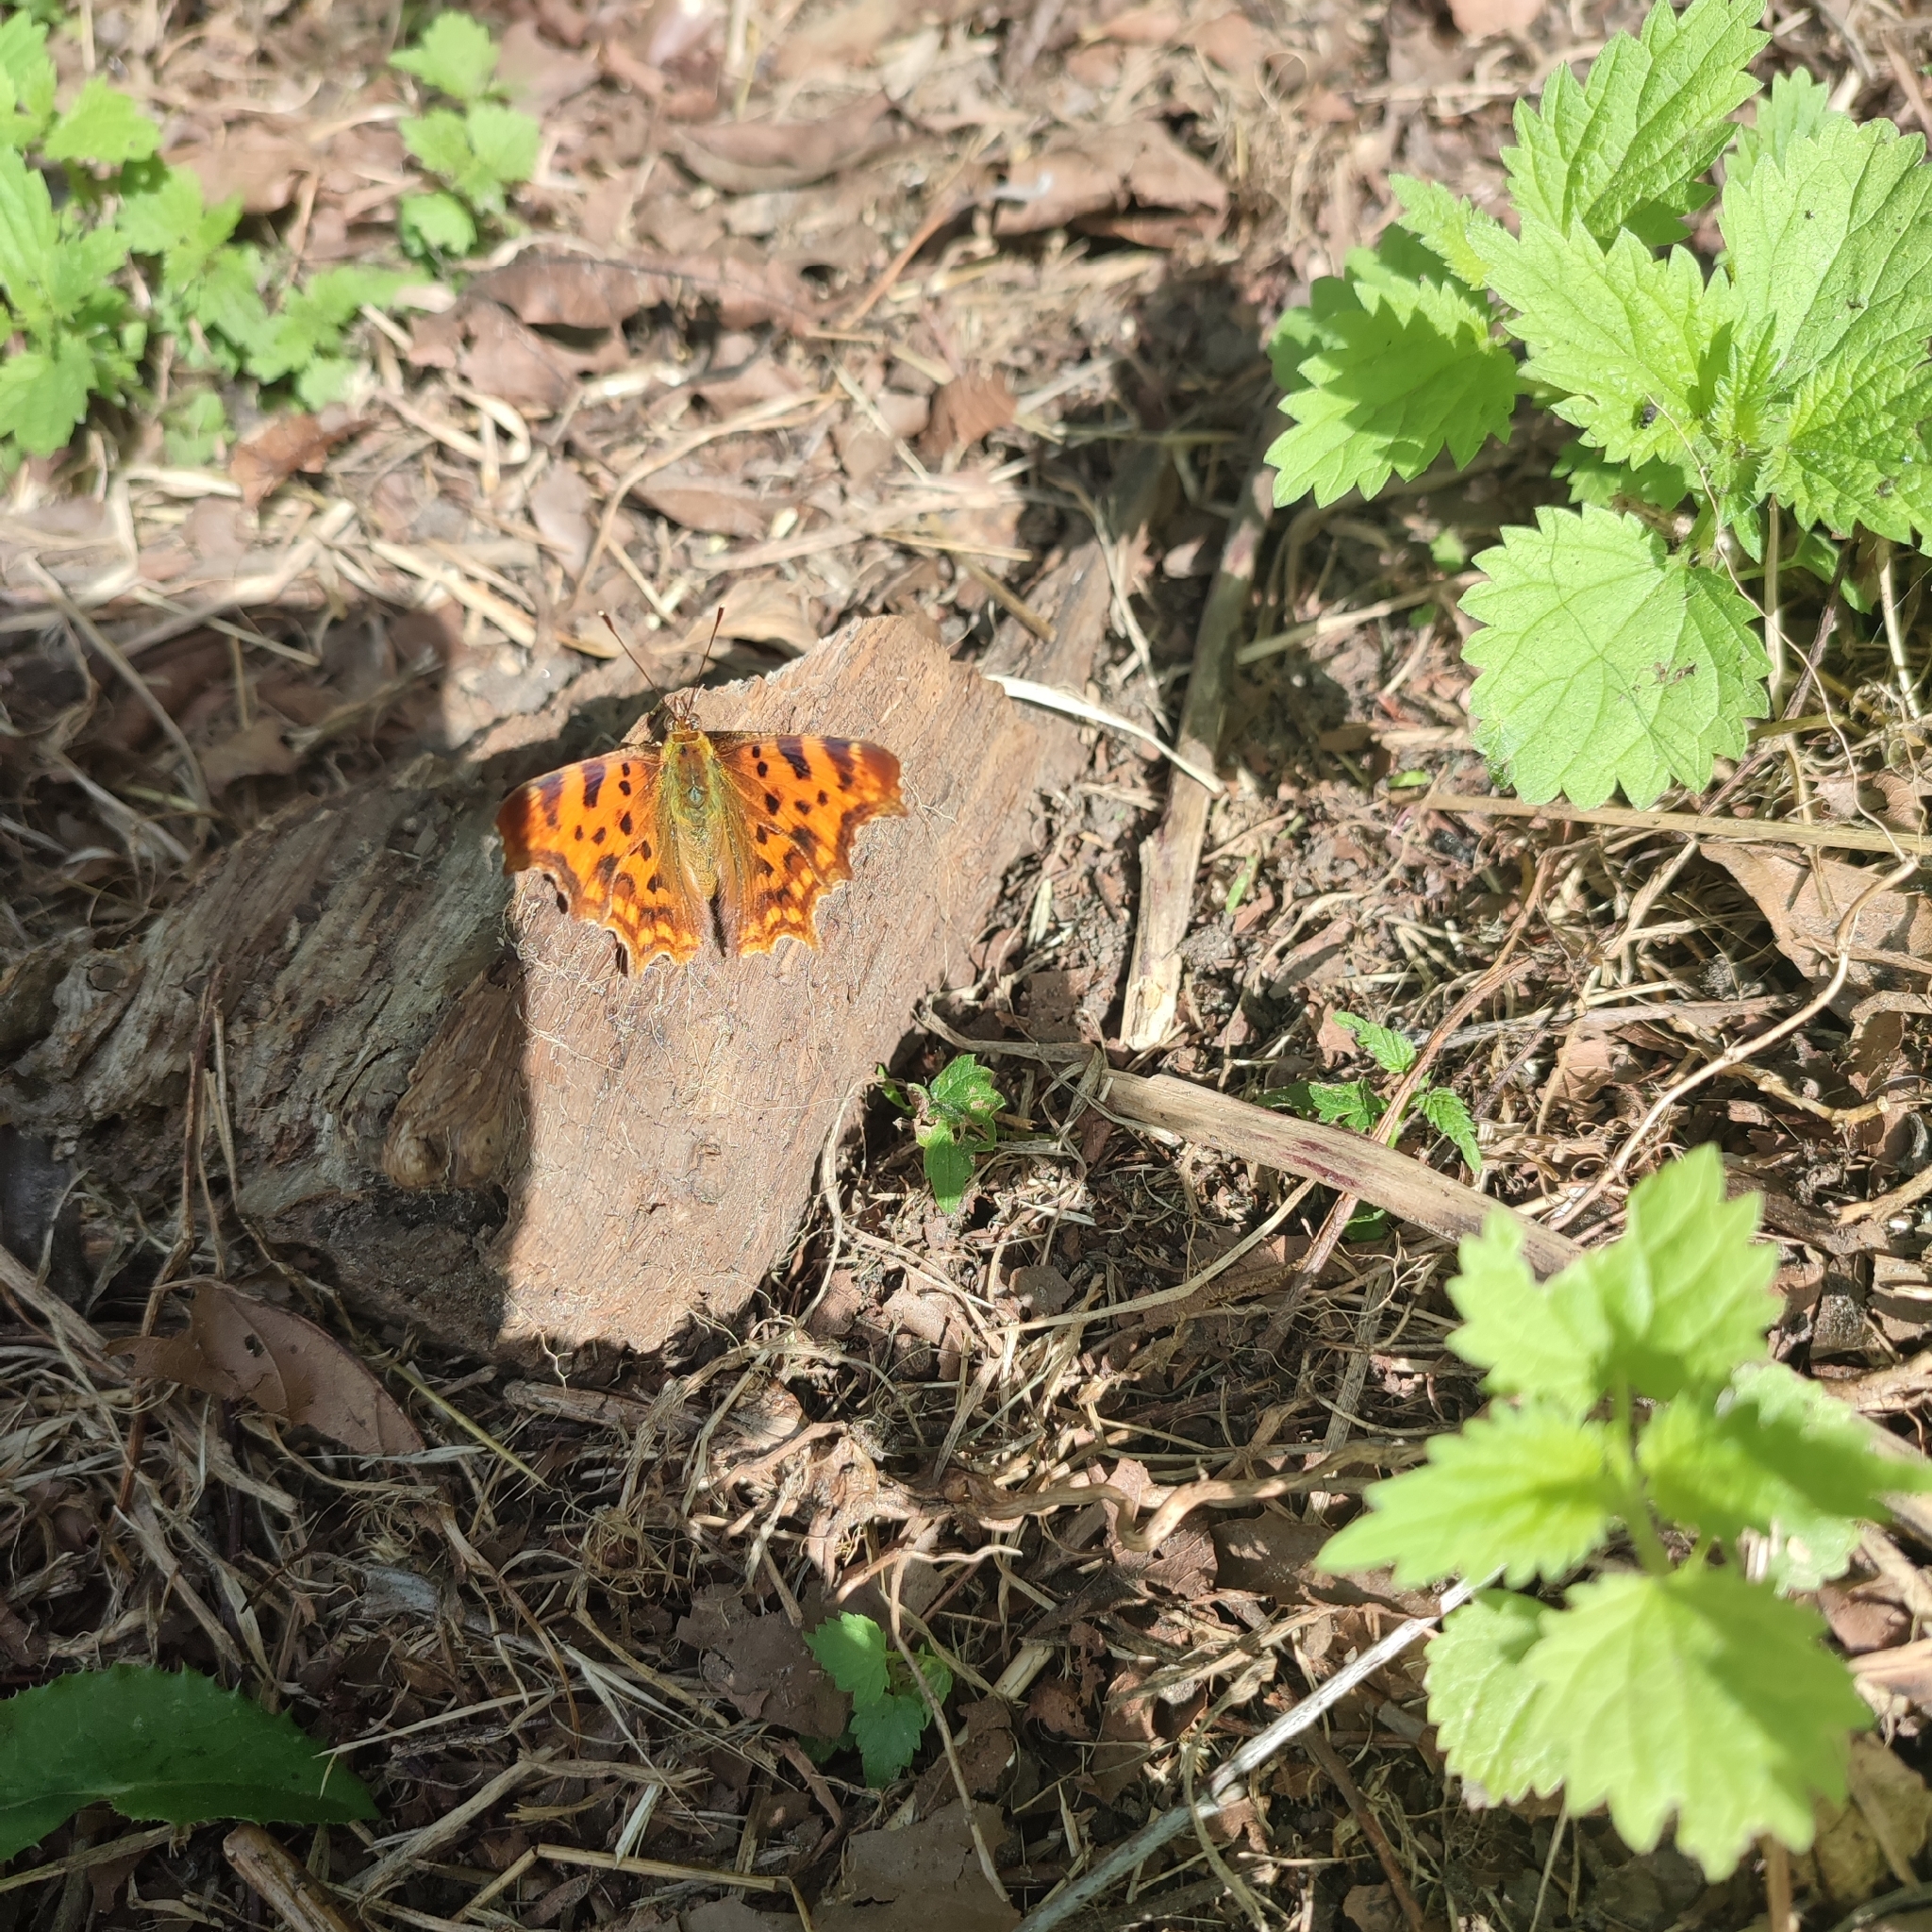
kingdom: Animalia
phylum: Arthropoda
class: Insecta
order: Lepidoptera
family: Nymphalidae
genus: Polygonia
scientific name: Polygonia c-album
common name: Comma
